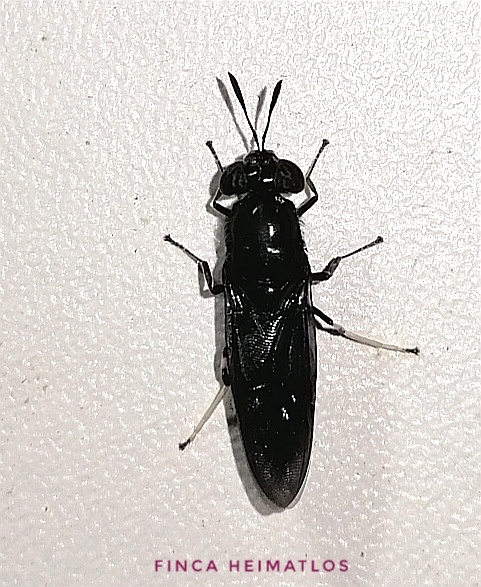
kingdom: Animalia
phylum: Arthropoda
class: Insecta
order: Diptera
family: Stratiomyidae
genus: Hermetia
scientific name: Hermetia illucens
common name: Black soldier fly
